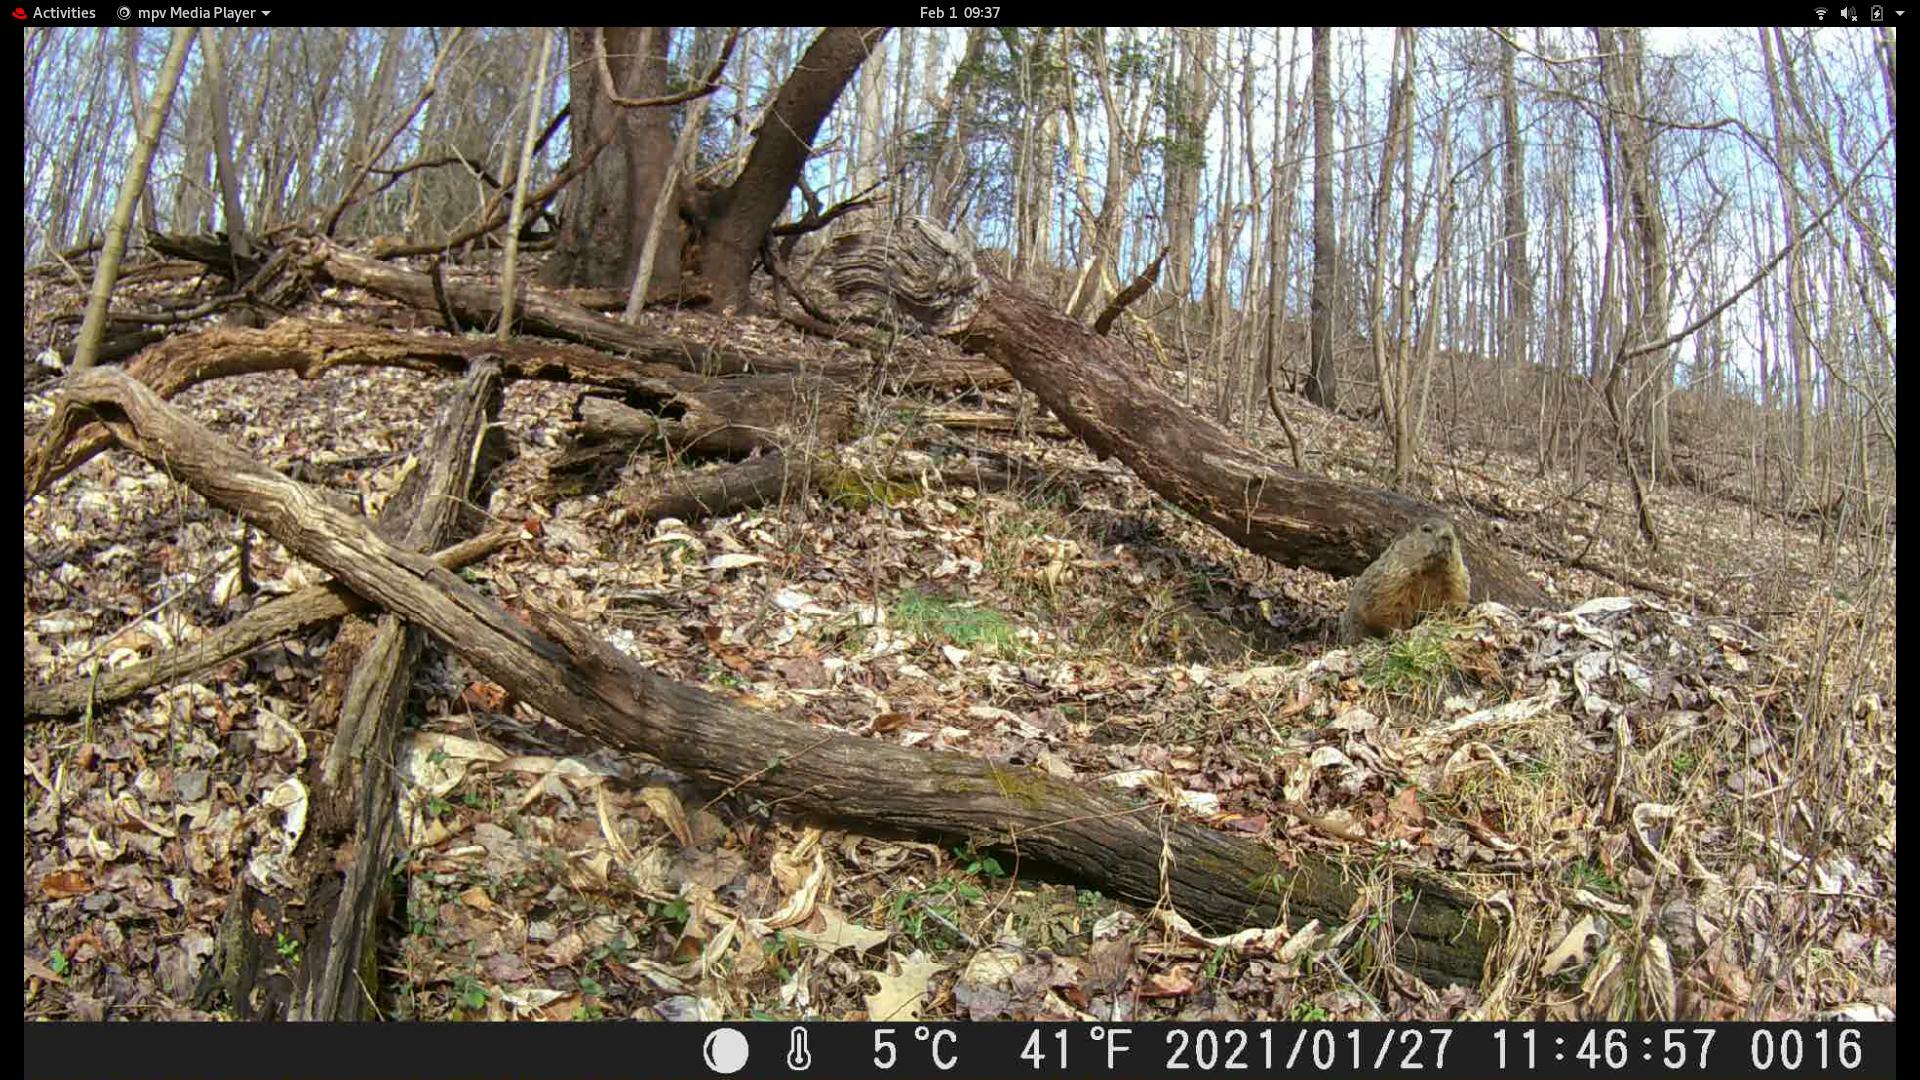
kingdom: Animalia
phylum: Chordata
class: Mammalia
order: Rodentia
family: Sciuridae
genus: Marmota
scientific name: Marmota monax
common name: Groundhog
